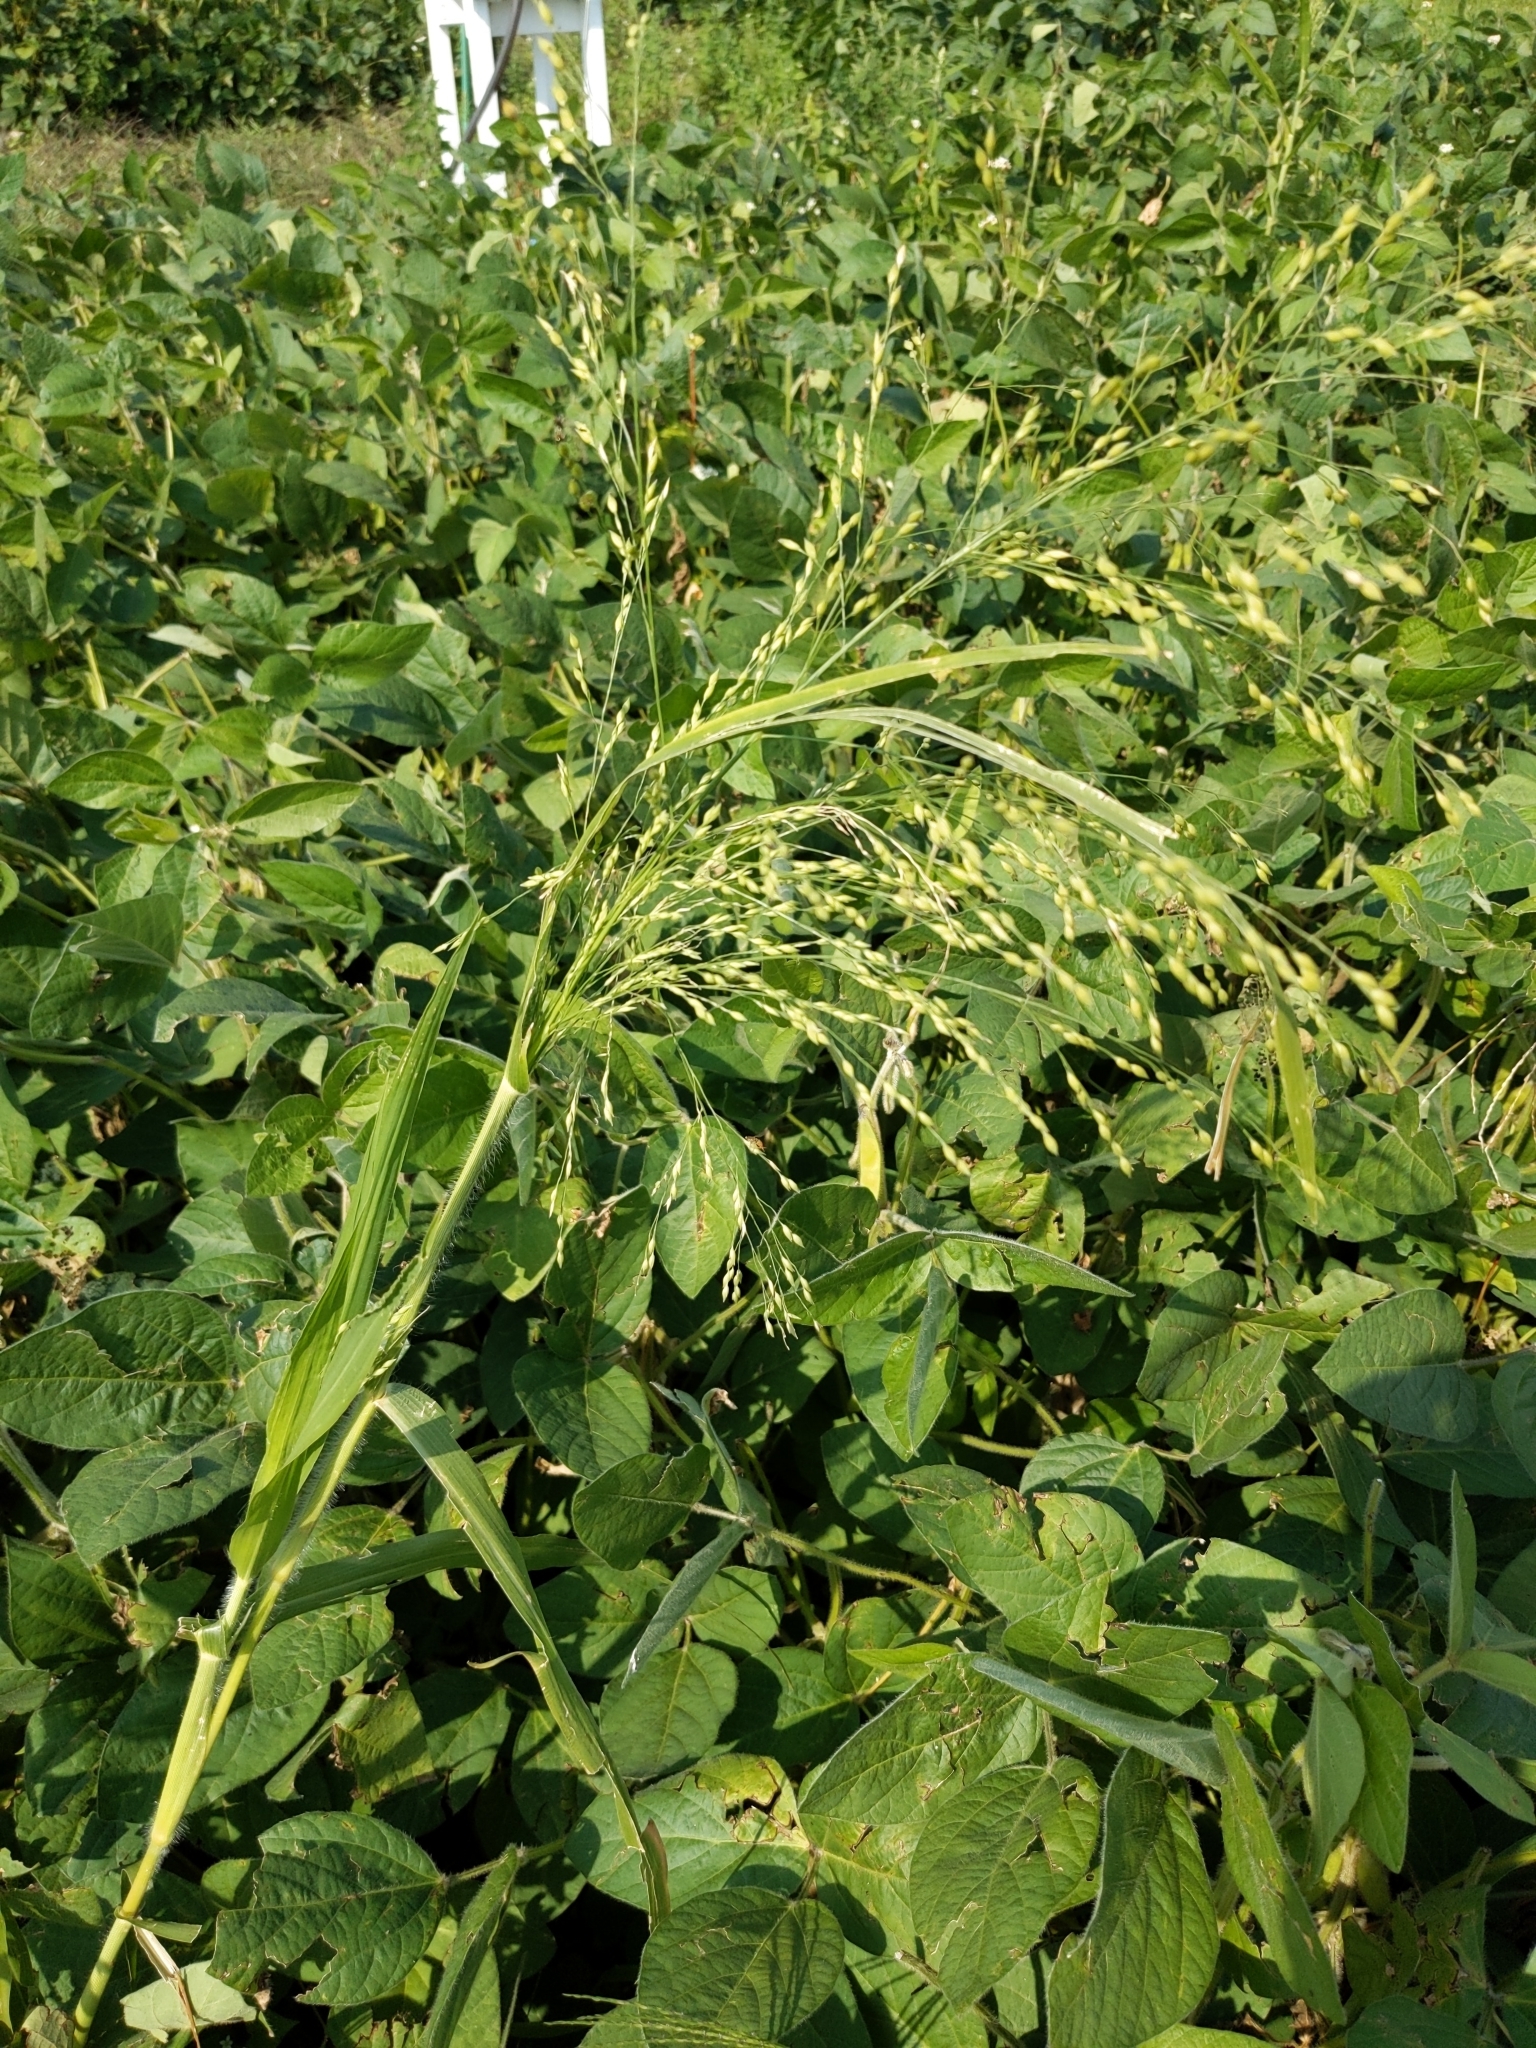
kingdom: Plantae
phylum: Tracheophyta
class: Liliopsida
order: Poales
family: Poaceae
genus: Panicum
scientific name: Panicum miliaceum
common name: Common millet
